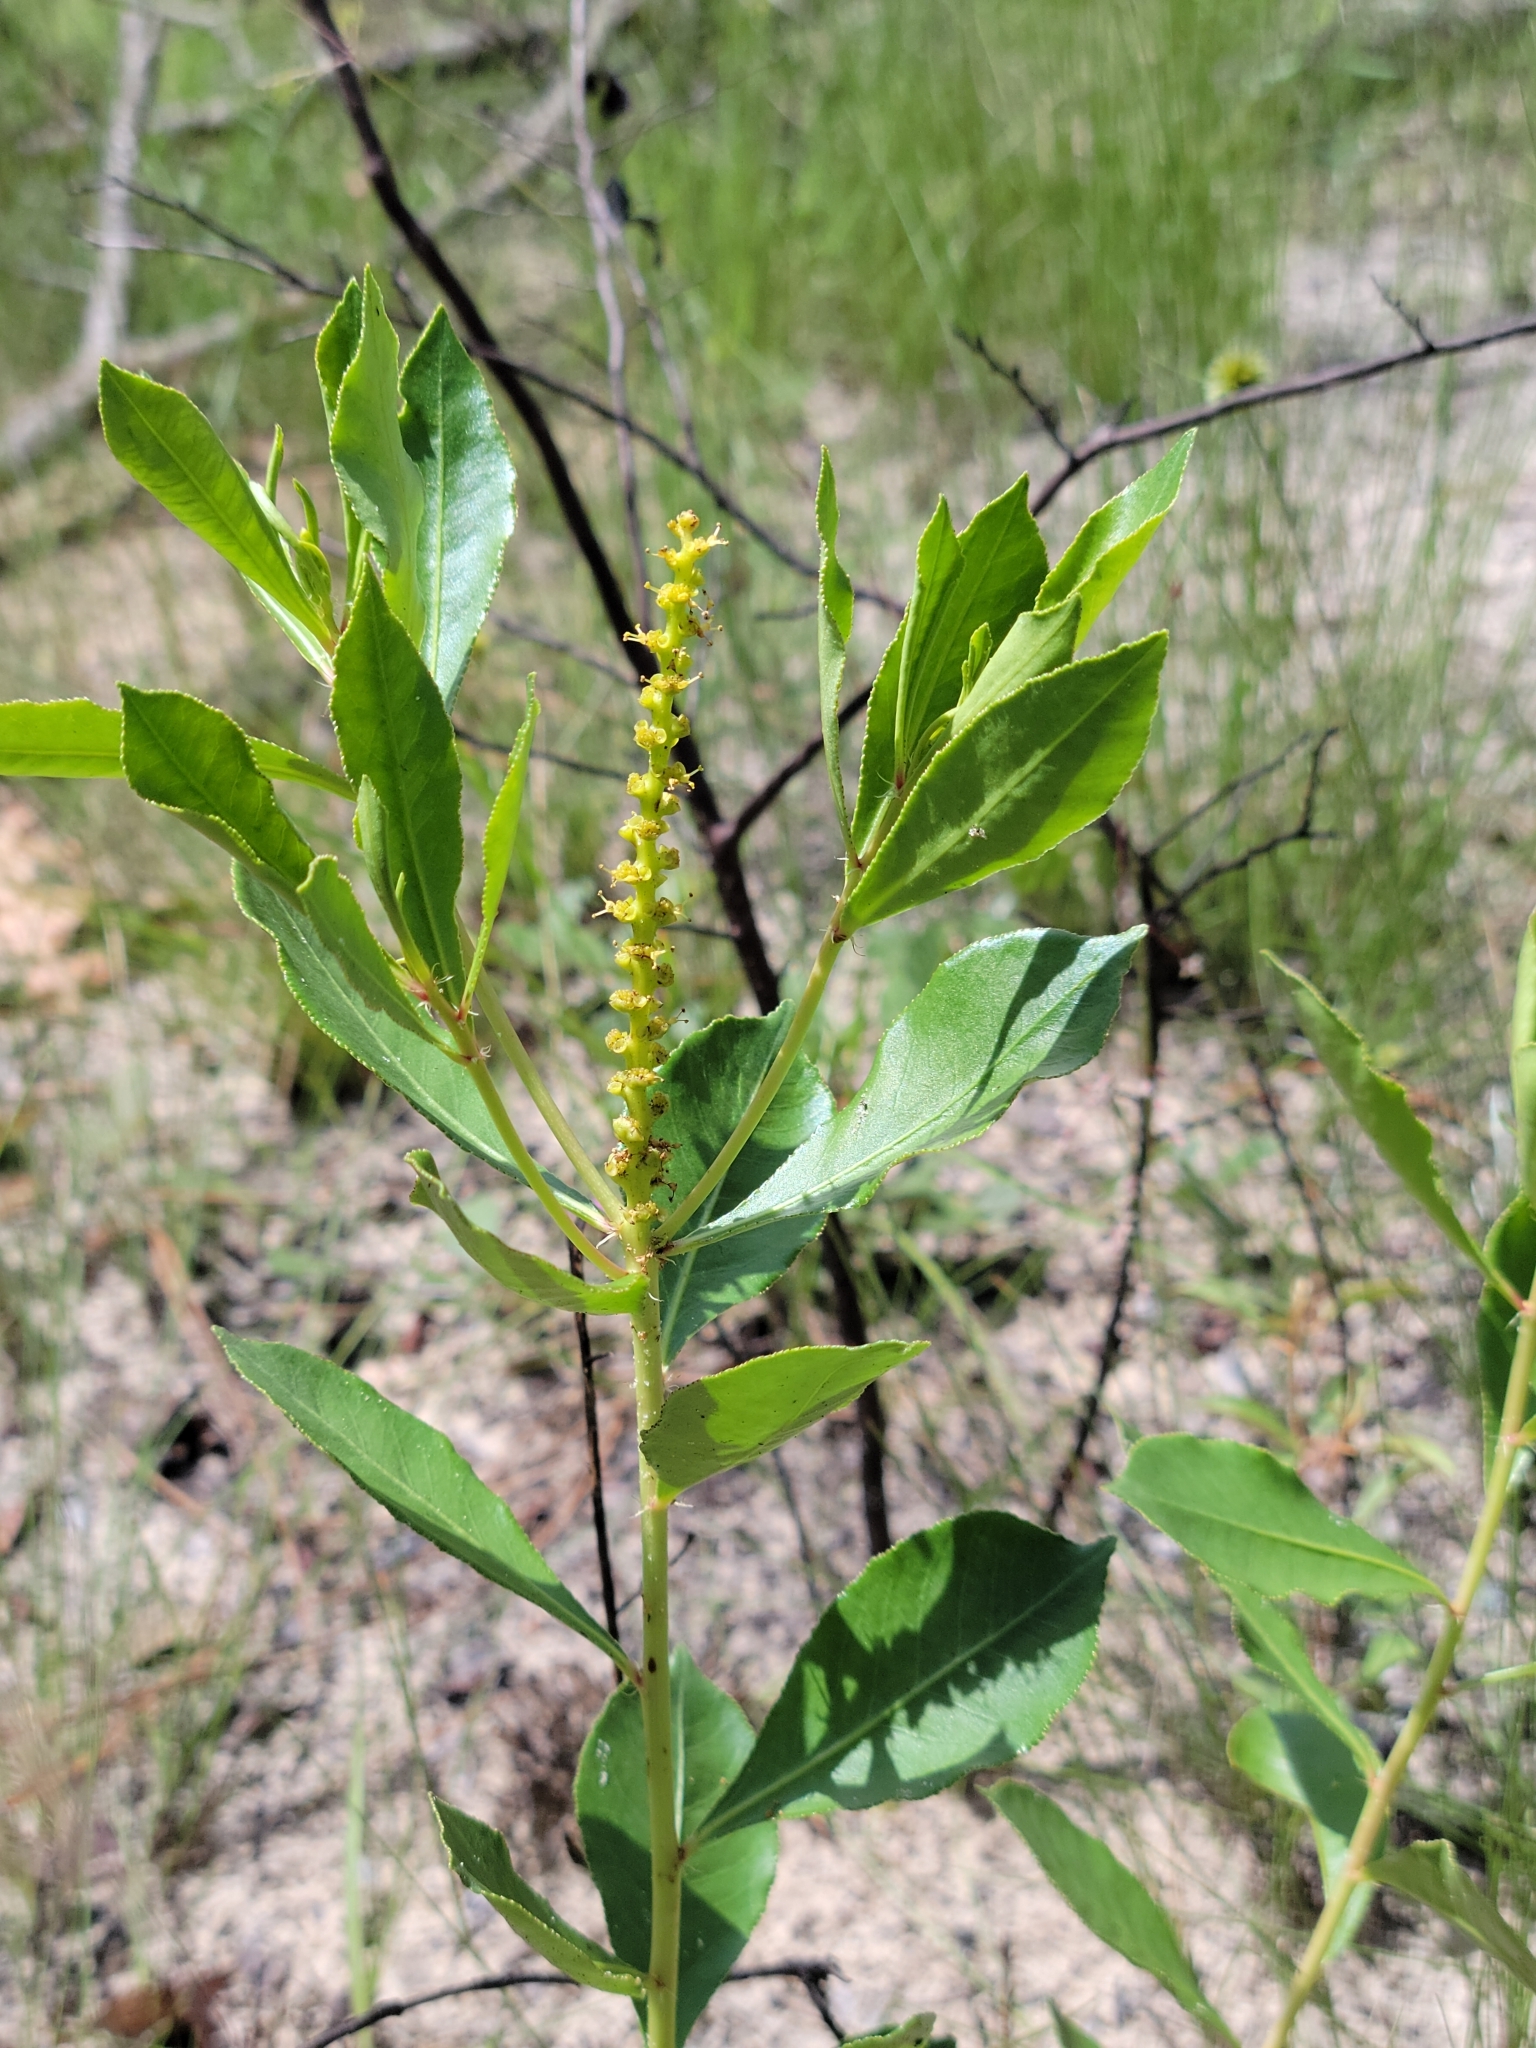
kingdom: Plantae
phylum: Tracheophyta
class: Magnoliopsida
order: Malpighiales
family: Euphorbiaceae
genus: Stillingia
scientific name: Stillingia sylvatica
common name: Queen's-delight
